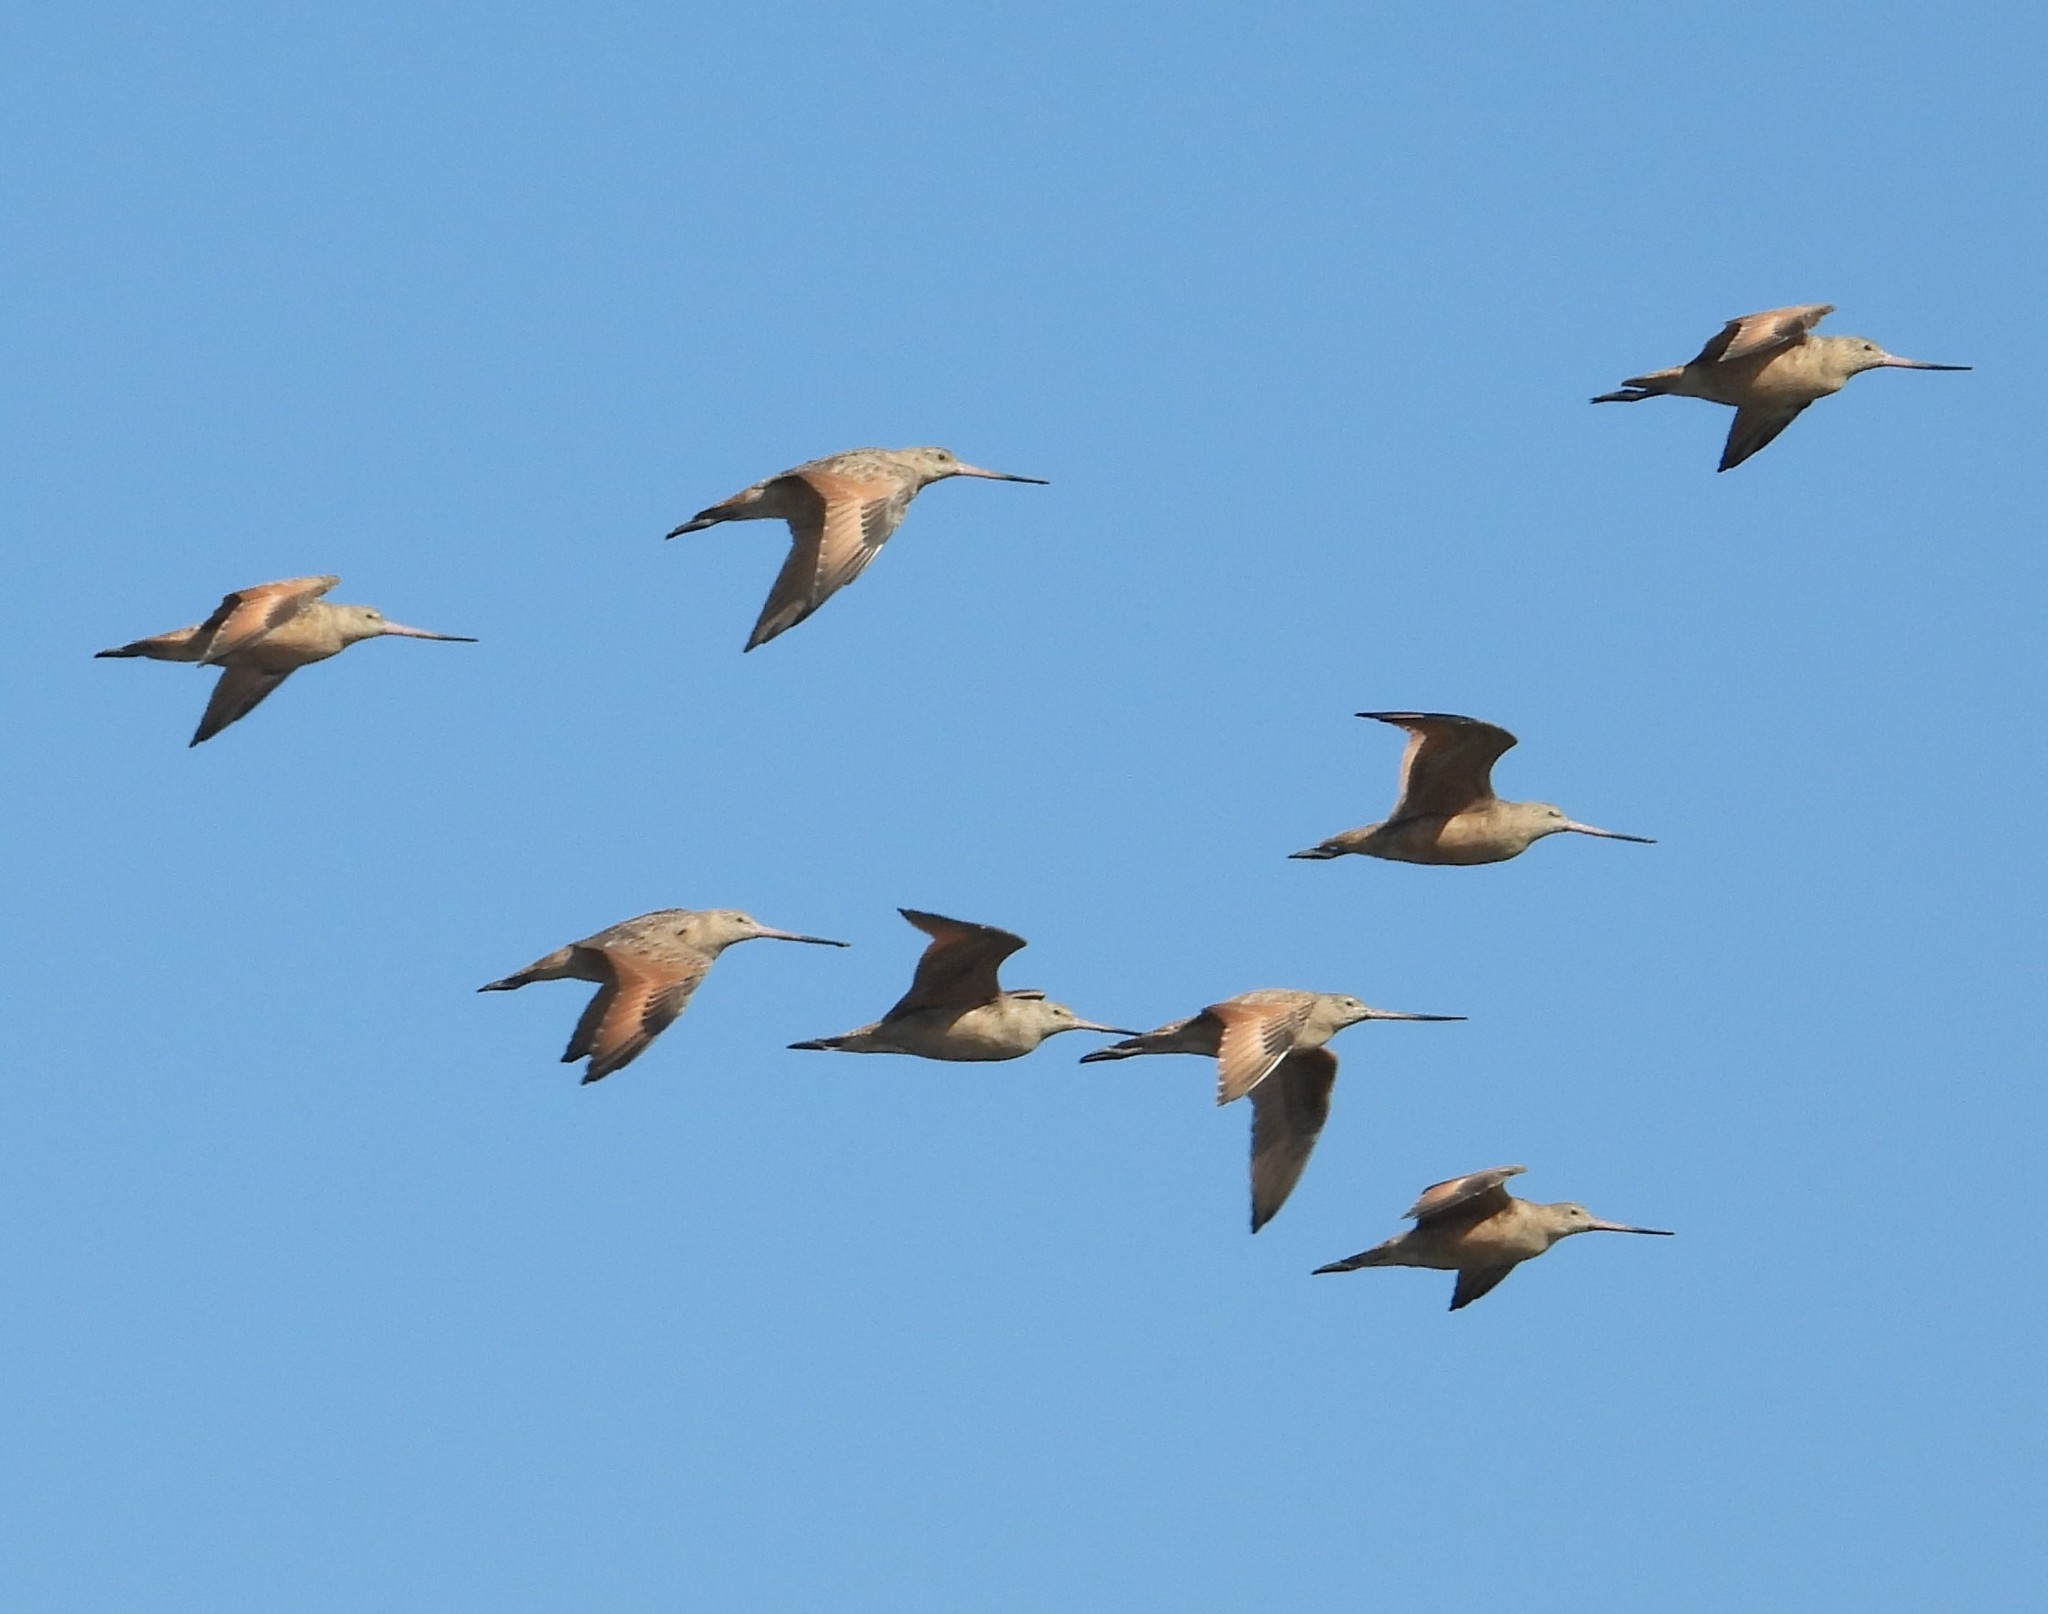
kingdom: Animalia
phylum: Chordata
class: Aves
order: Charadriiformes
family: Scolopacidae
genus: Limosa
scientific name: Limosa fedoa
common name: Marbled godwit
